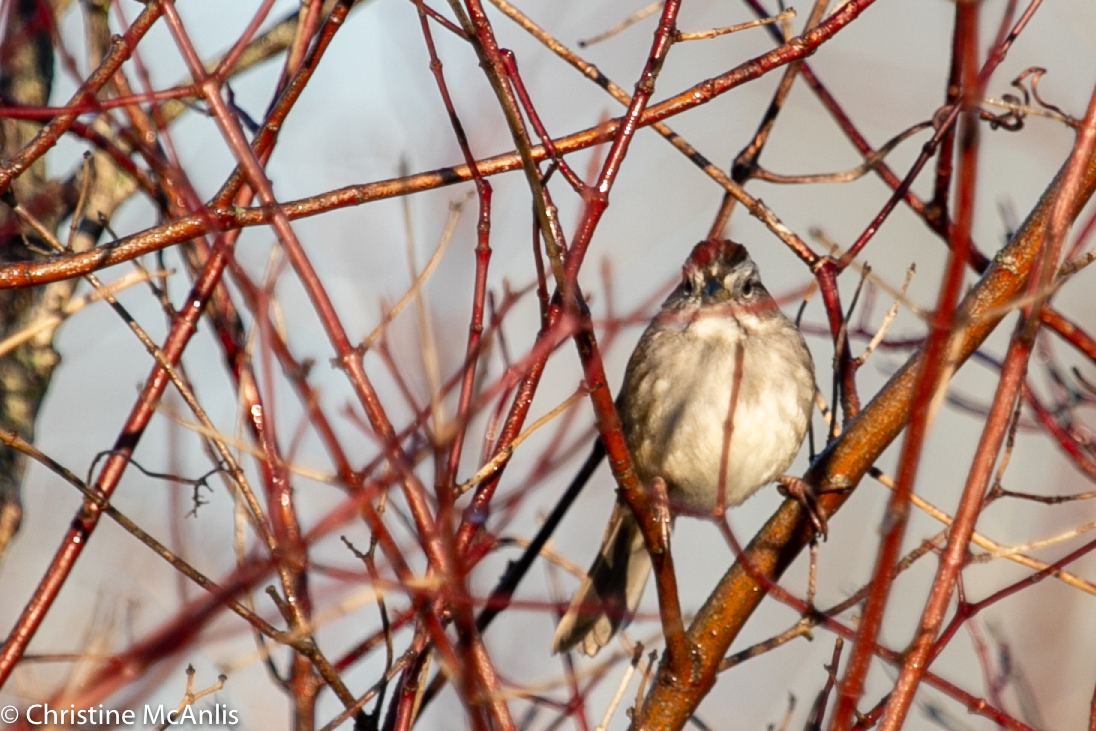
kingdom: Animalia
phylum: Chordata
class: Aves
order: Passeriformes
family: Passerellidae
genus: Melospiza
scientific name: Melospiza georgiana
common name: Swamp sparrow
